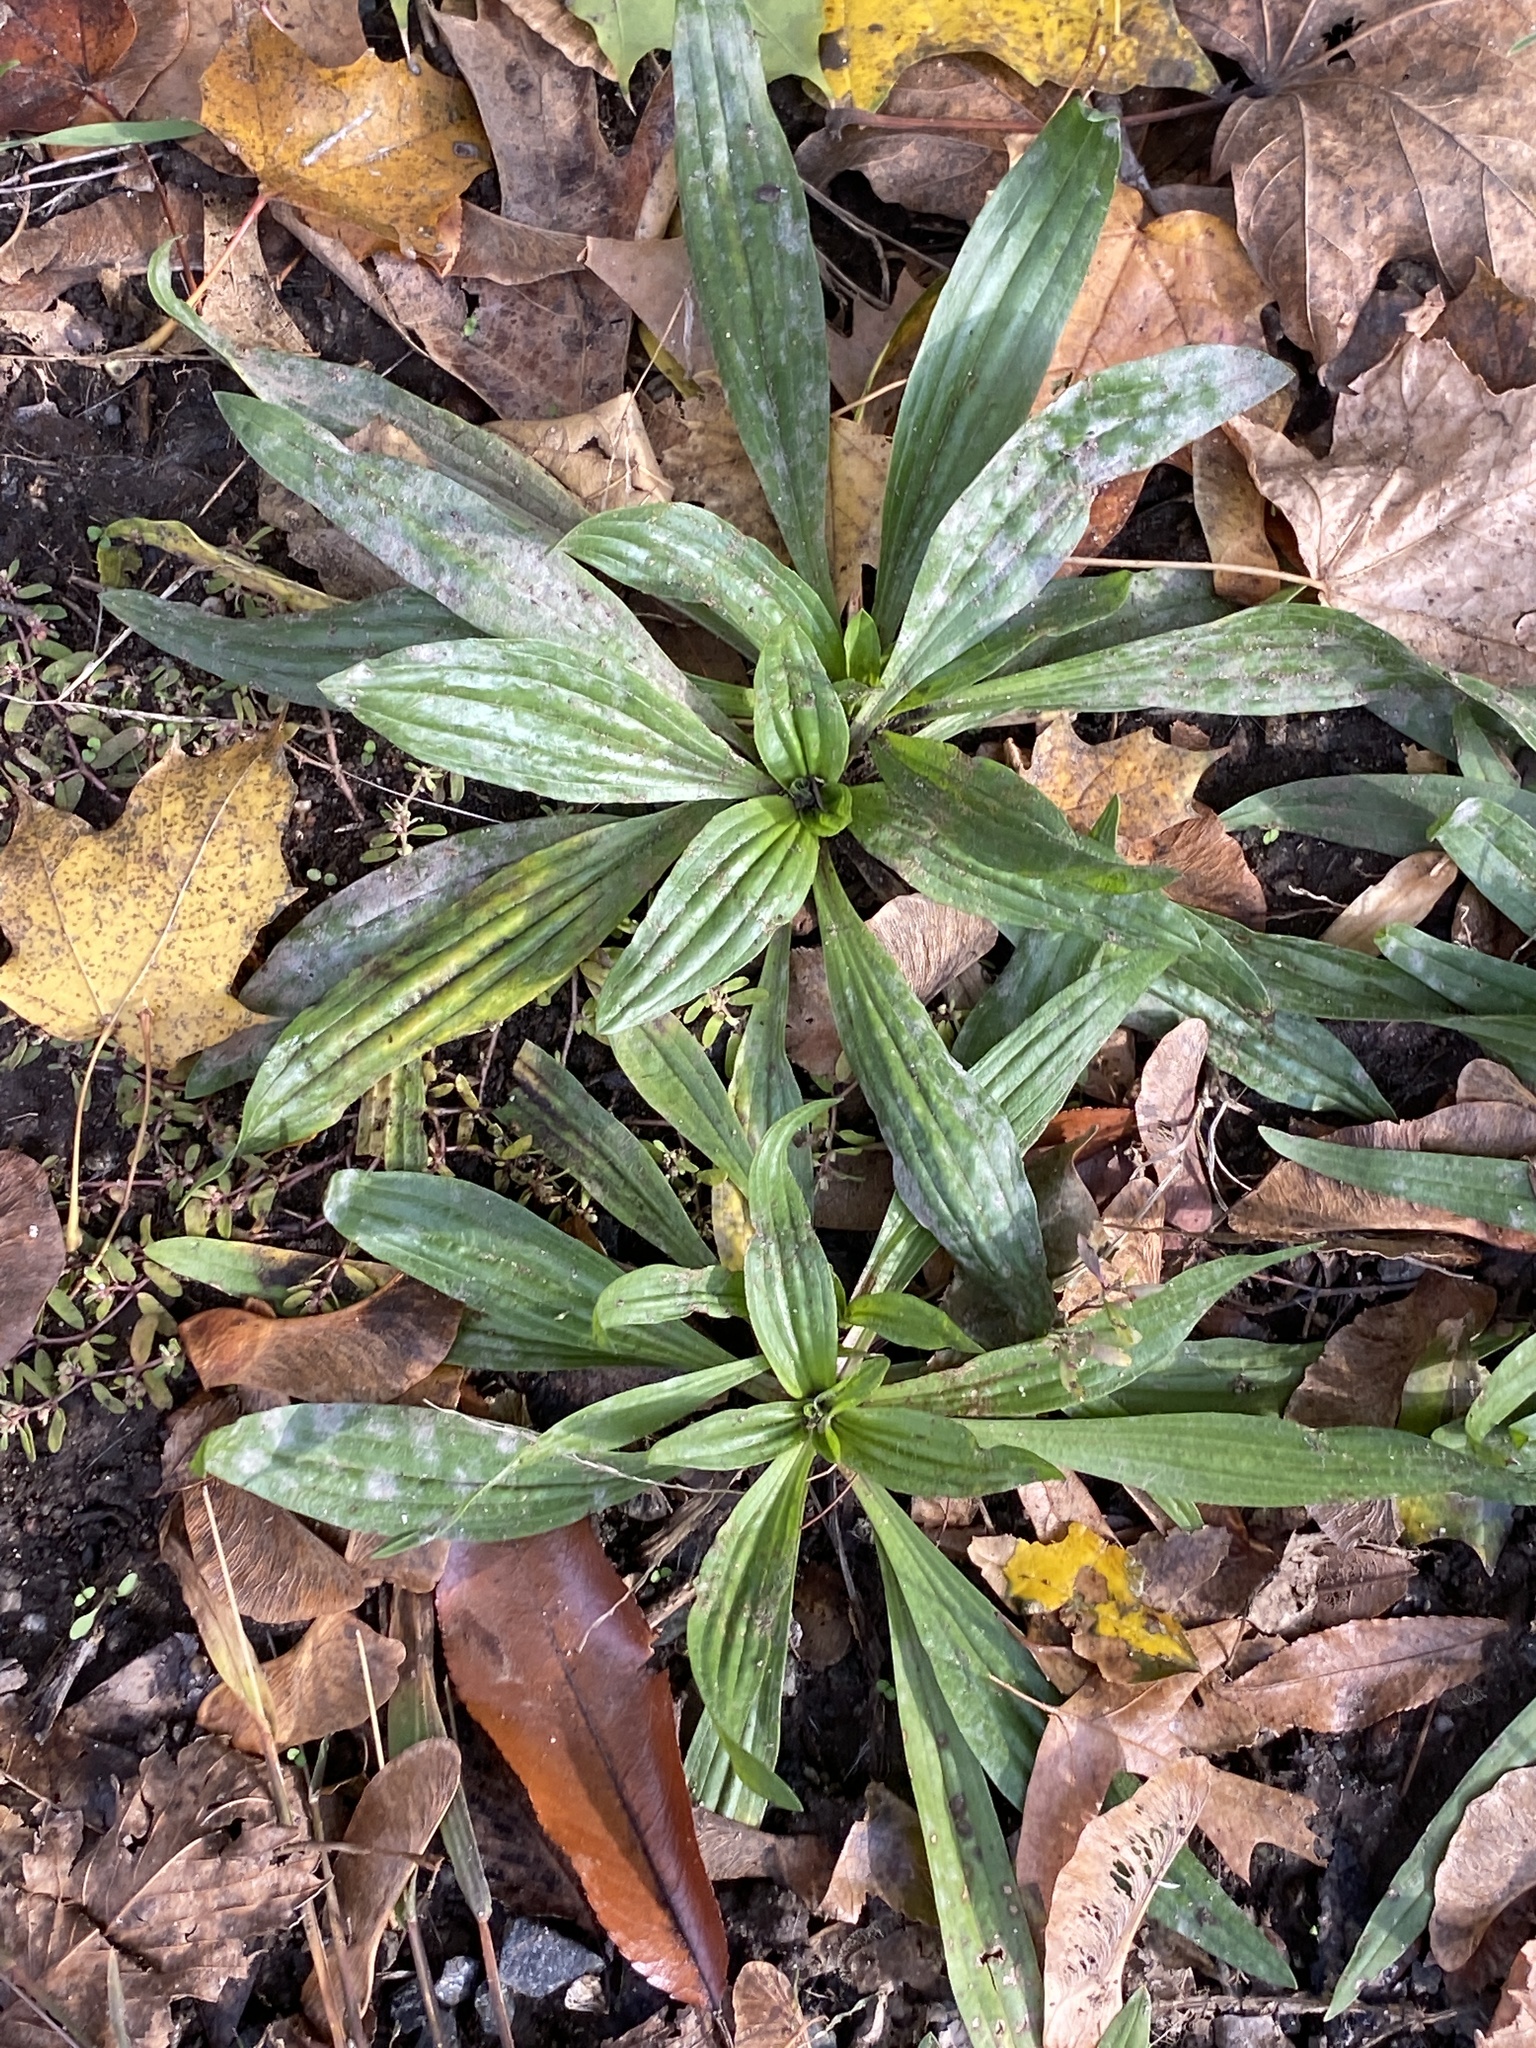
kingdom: Plantae
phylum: Tracheophyta
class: Magnoliopsida
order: Lamiales
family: Plantaginaceae
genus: Plantago
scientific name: Plantago lanceolata
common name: Ribwort plantain
